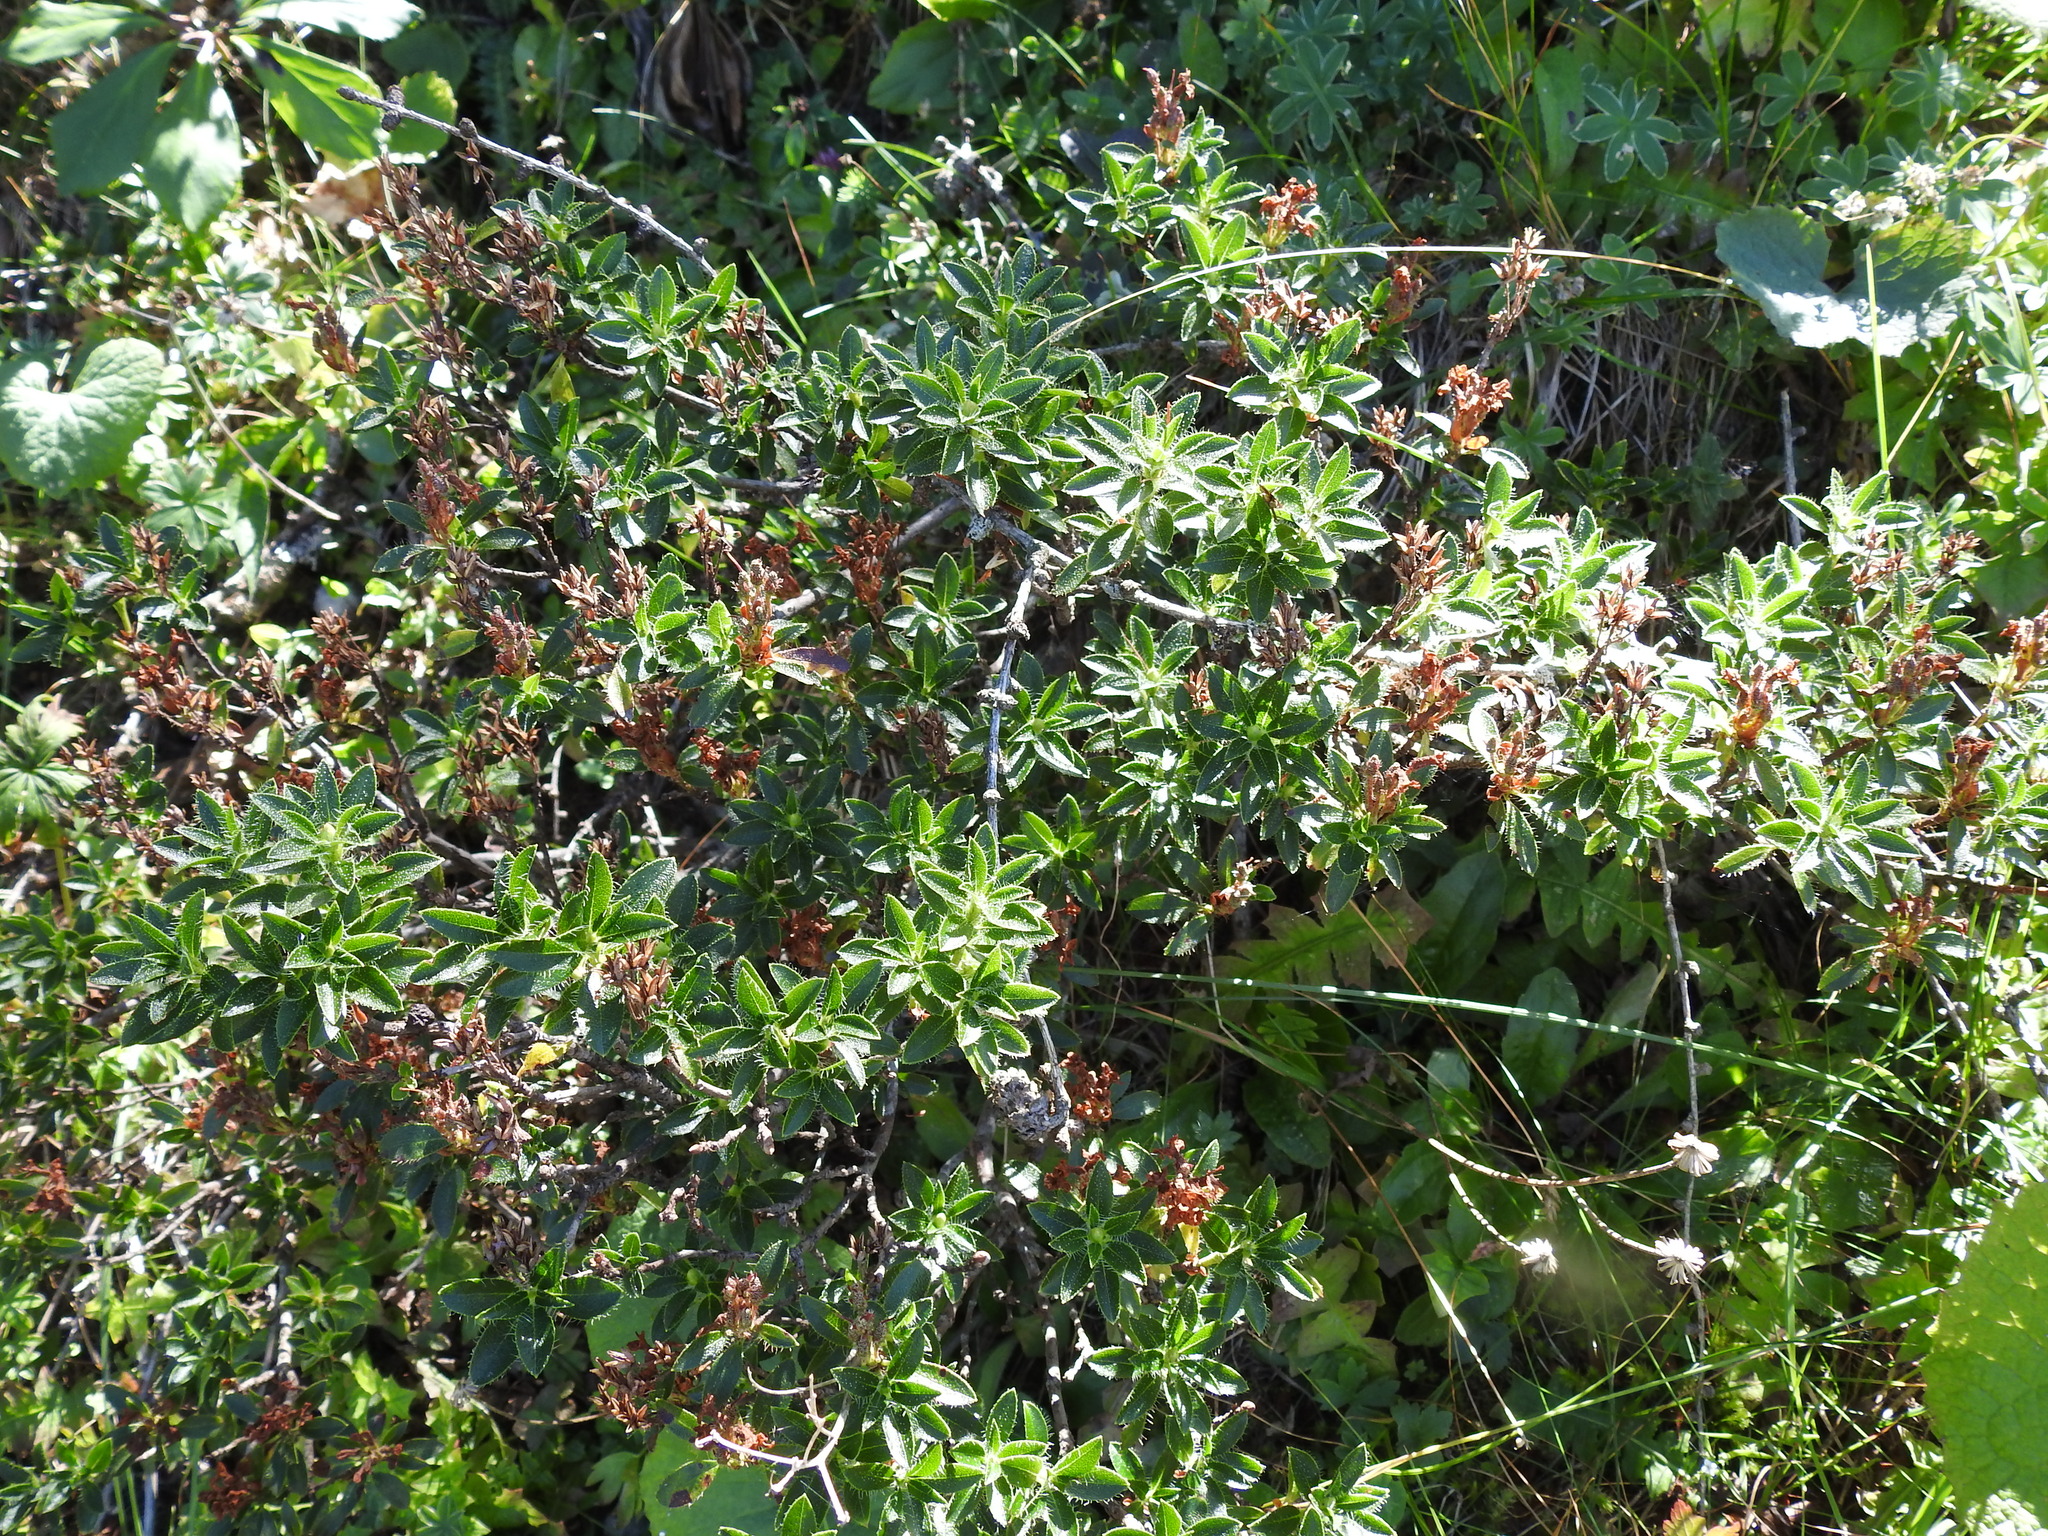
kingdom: Plantae
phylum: Tracheophyta
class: Magnoliopsida
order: Ericales
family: Ericaceae
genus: Rhododendron
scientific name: Rhododendron hirsutum
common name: Hairy alpenrose
